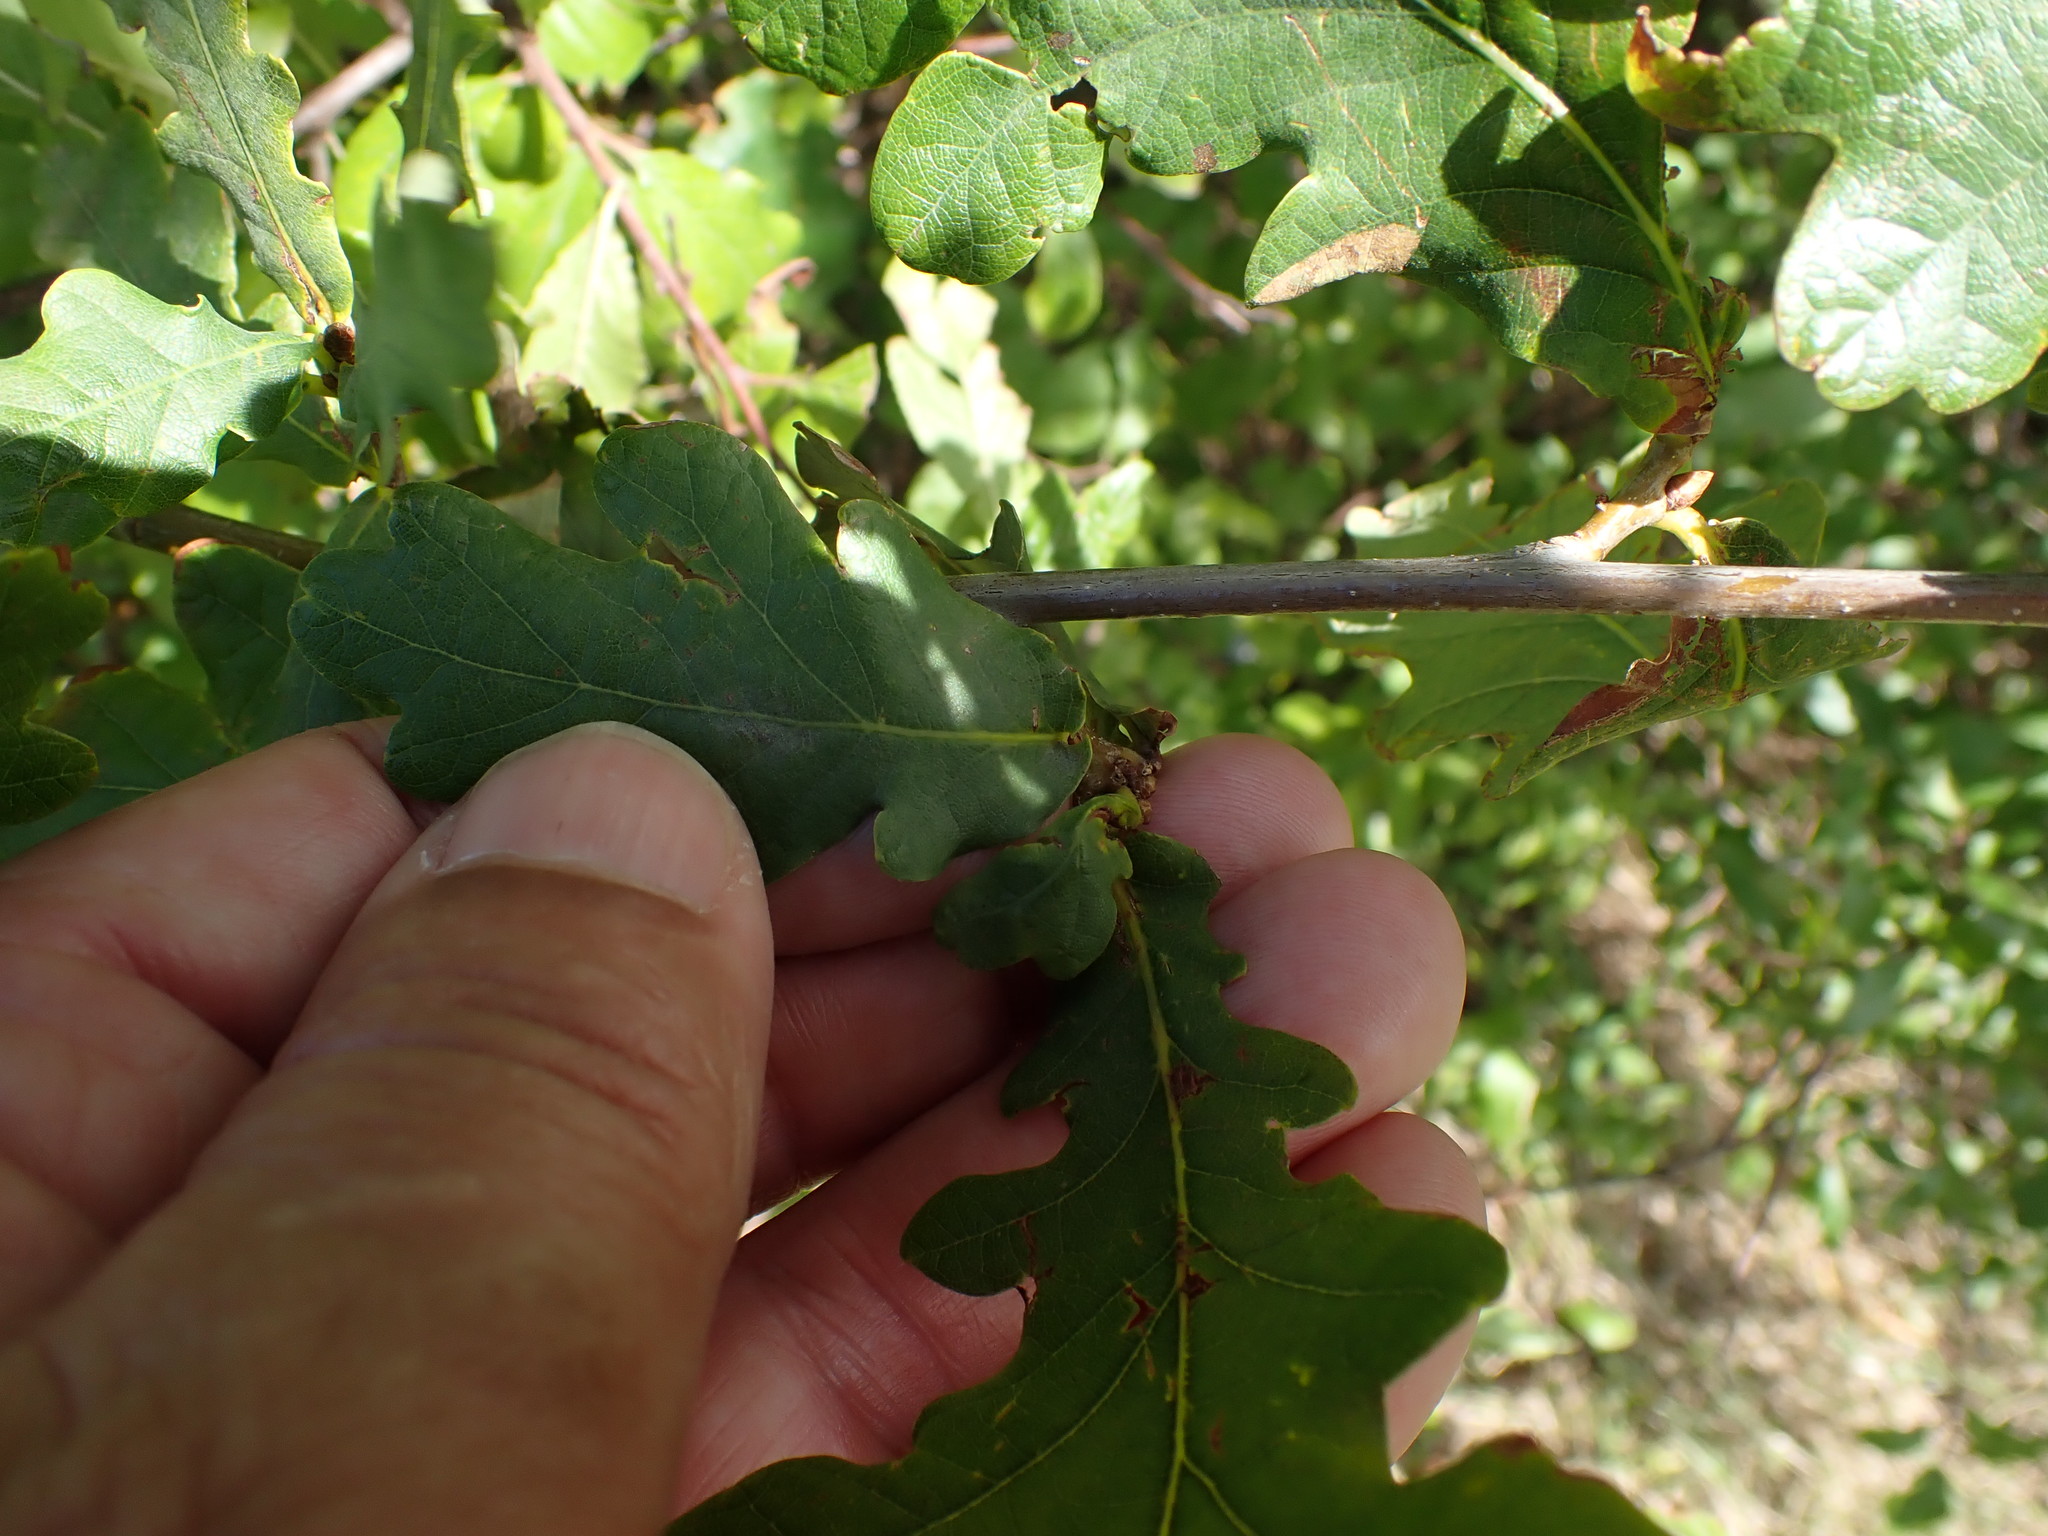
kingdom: Plantae
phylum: Tracheophyta
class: Magnoliopsida
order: Fagales
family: Fagaceae
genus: Quercus
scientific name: Quercus robur
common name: Pedunculate oak
